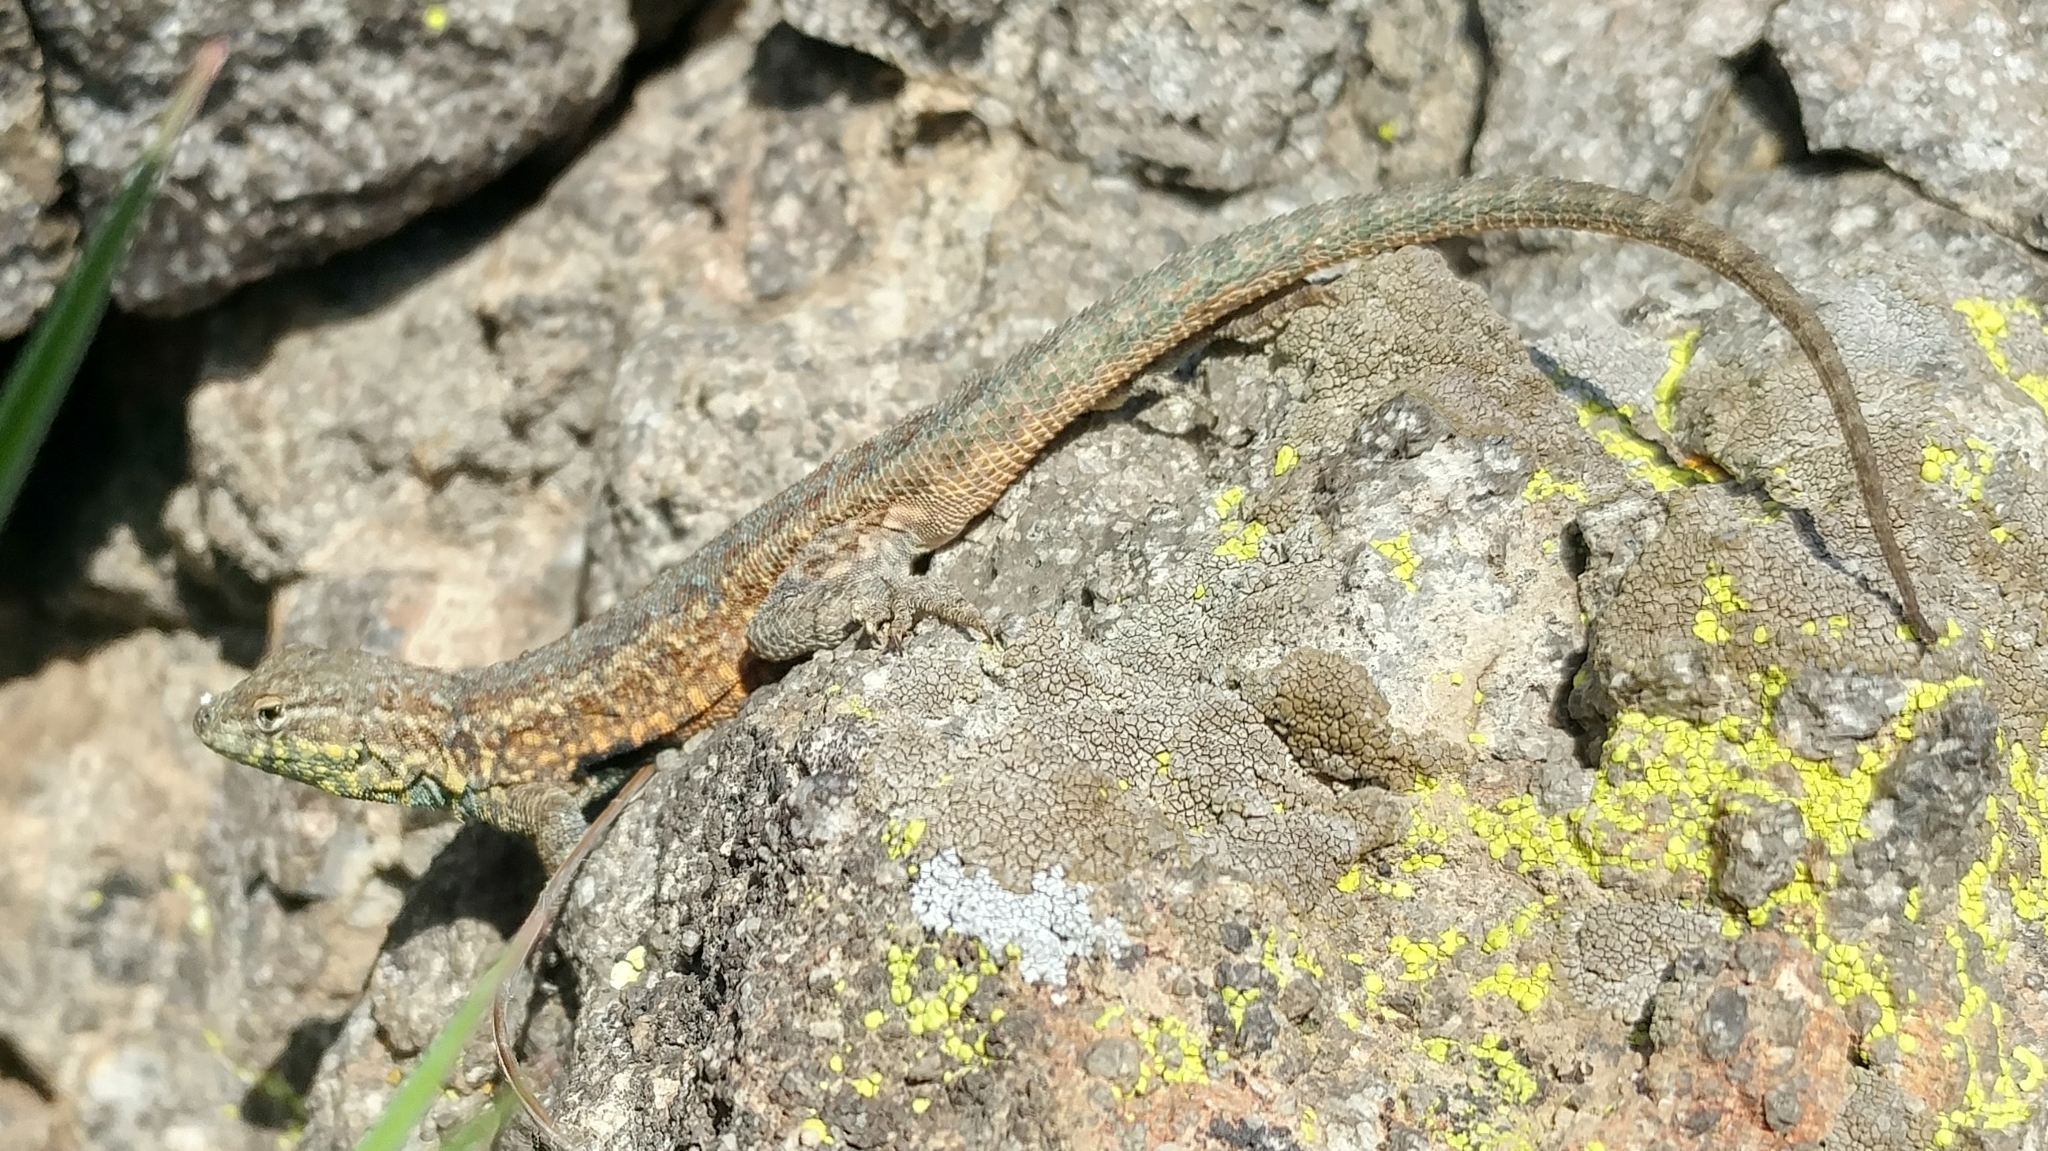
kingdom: Animalia
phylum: Chordata
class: Squamata
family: Phrynosomatidae
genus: Uta
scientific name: Uta stansburiana
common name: Side-blotched lizard
